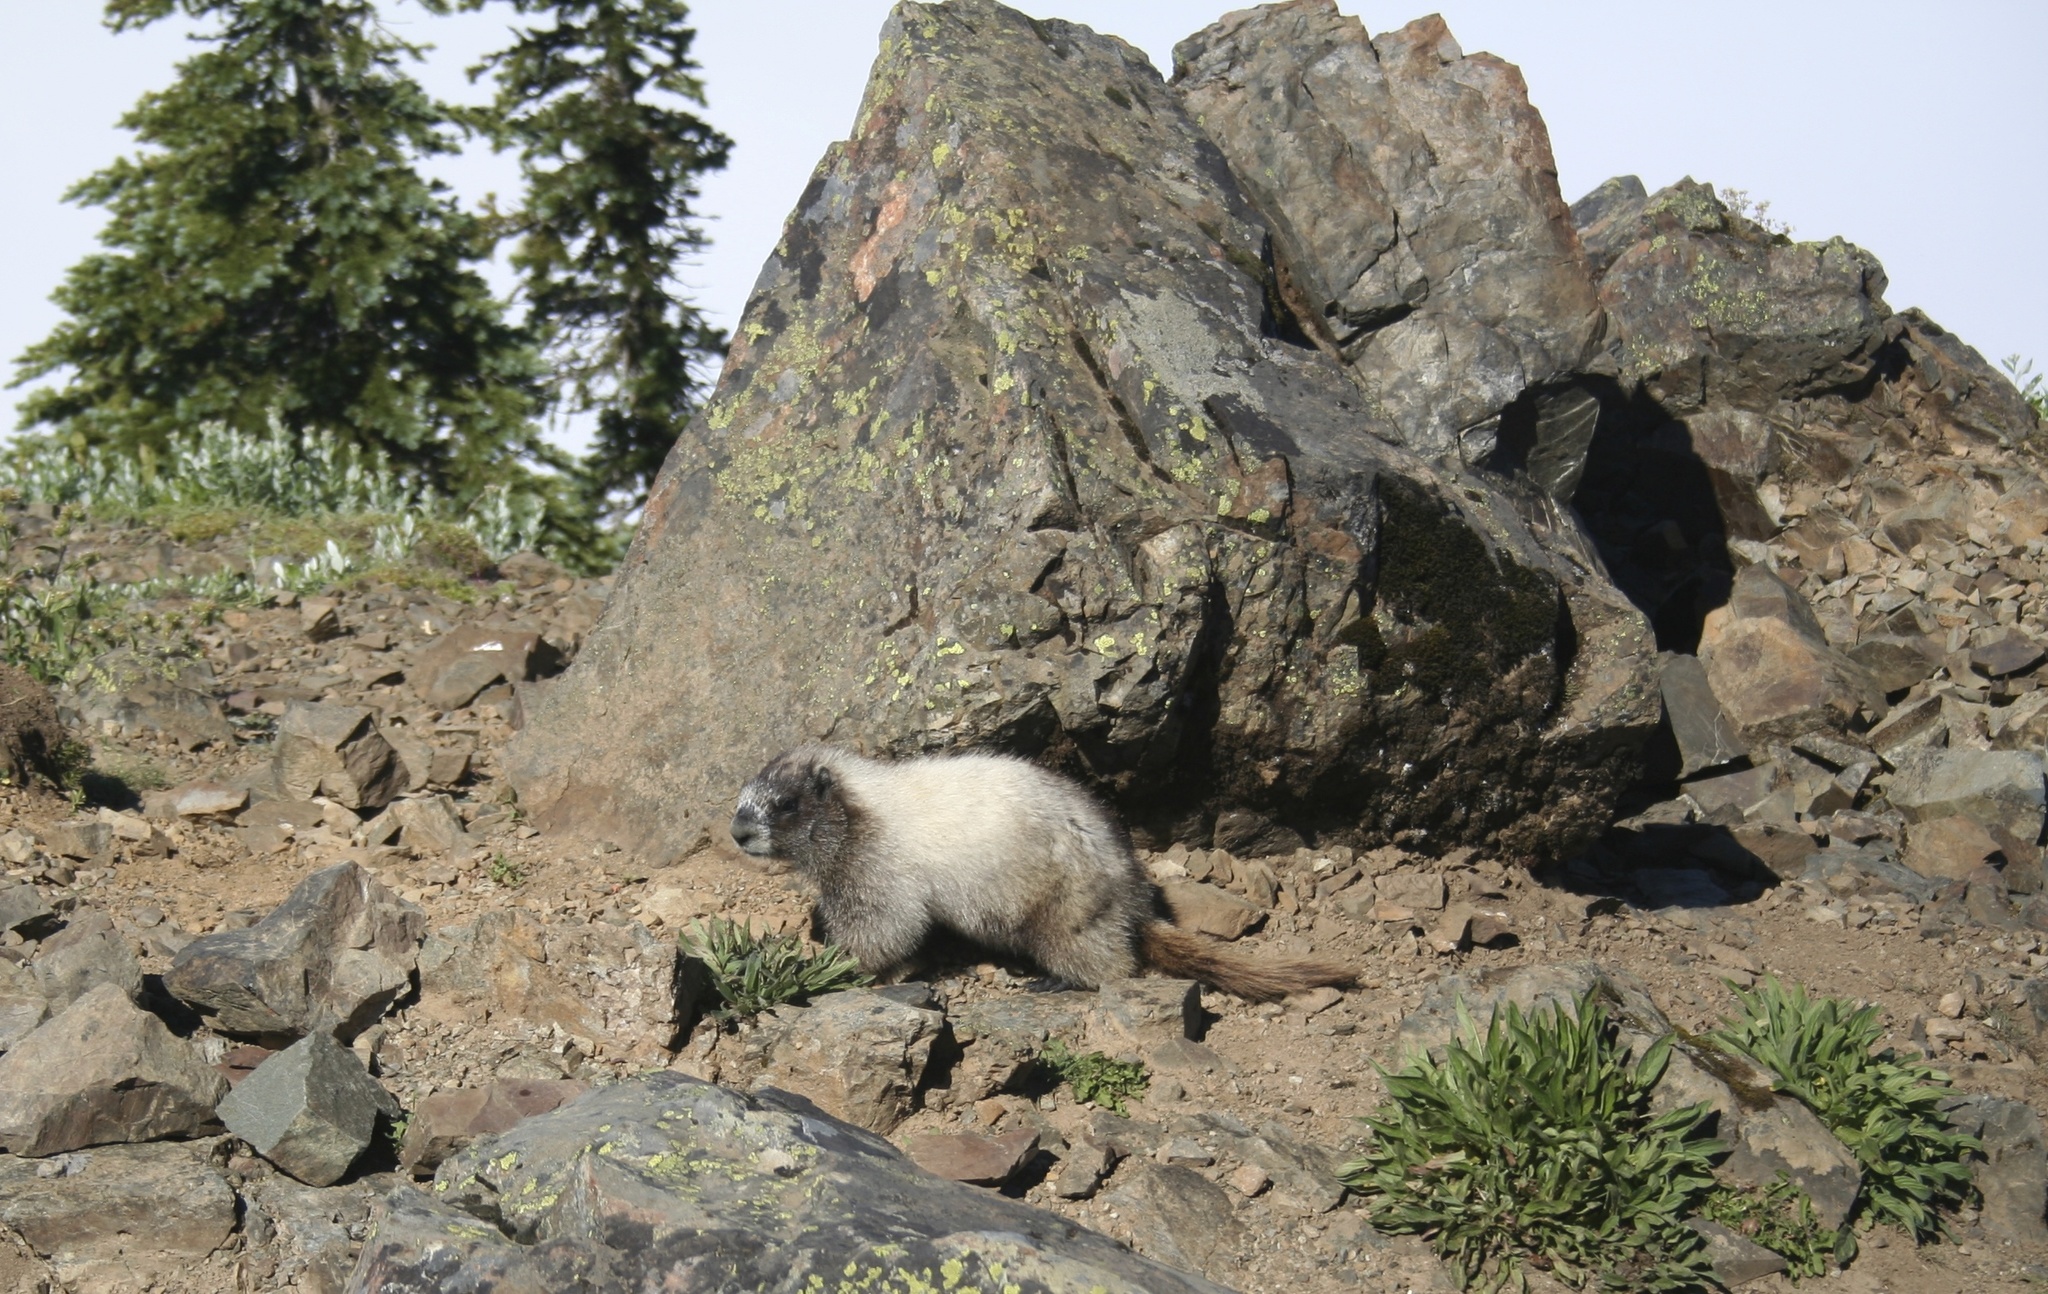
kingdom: Animalia
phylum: Chordata
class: Mammalia
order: Rodentia
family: Sciuridae
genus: Marmota
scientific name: Marmota caligata
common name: Hoary marmot
